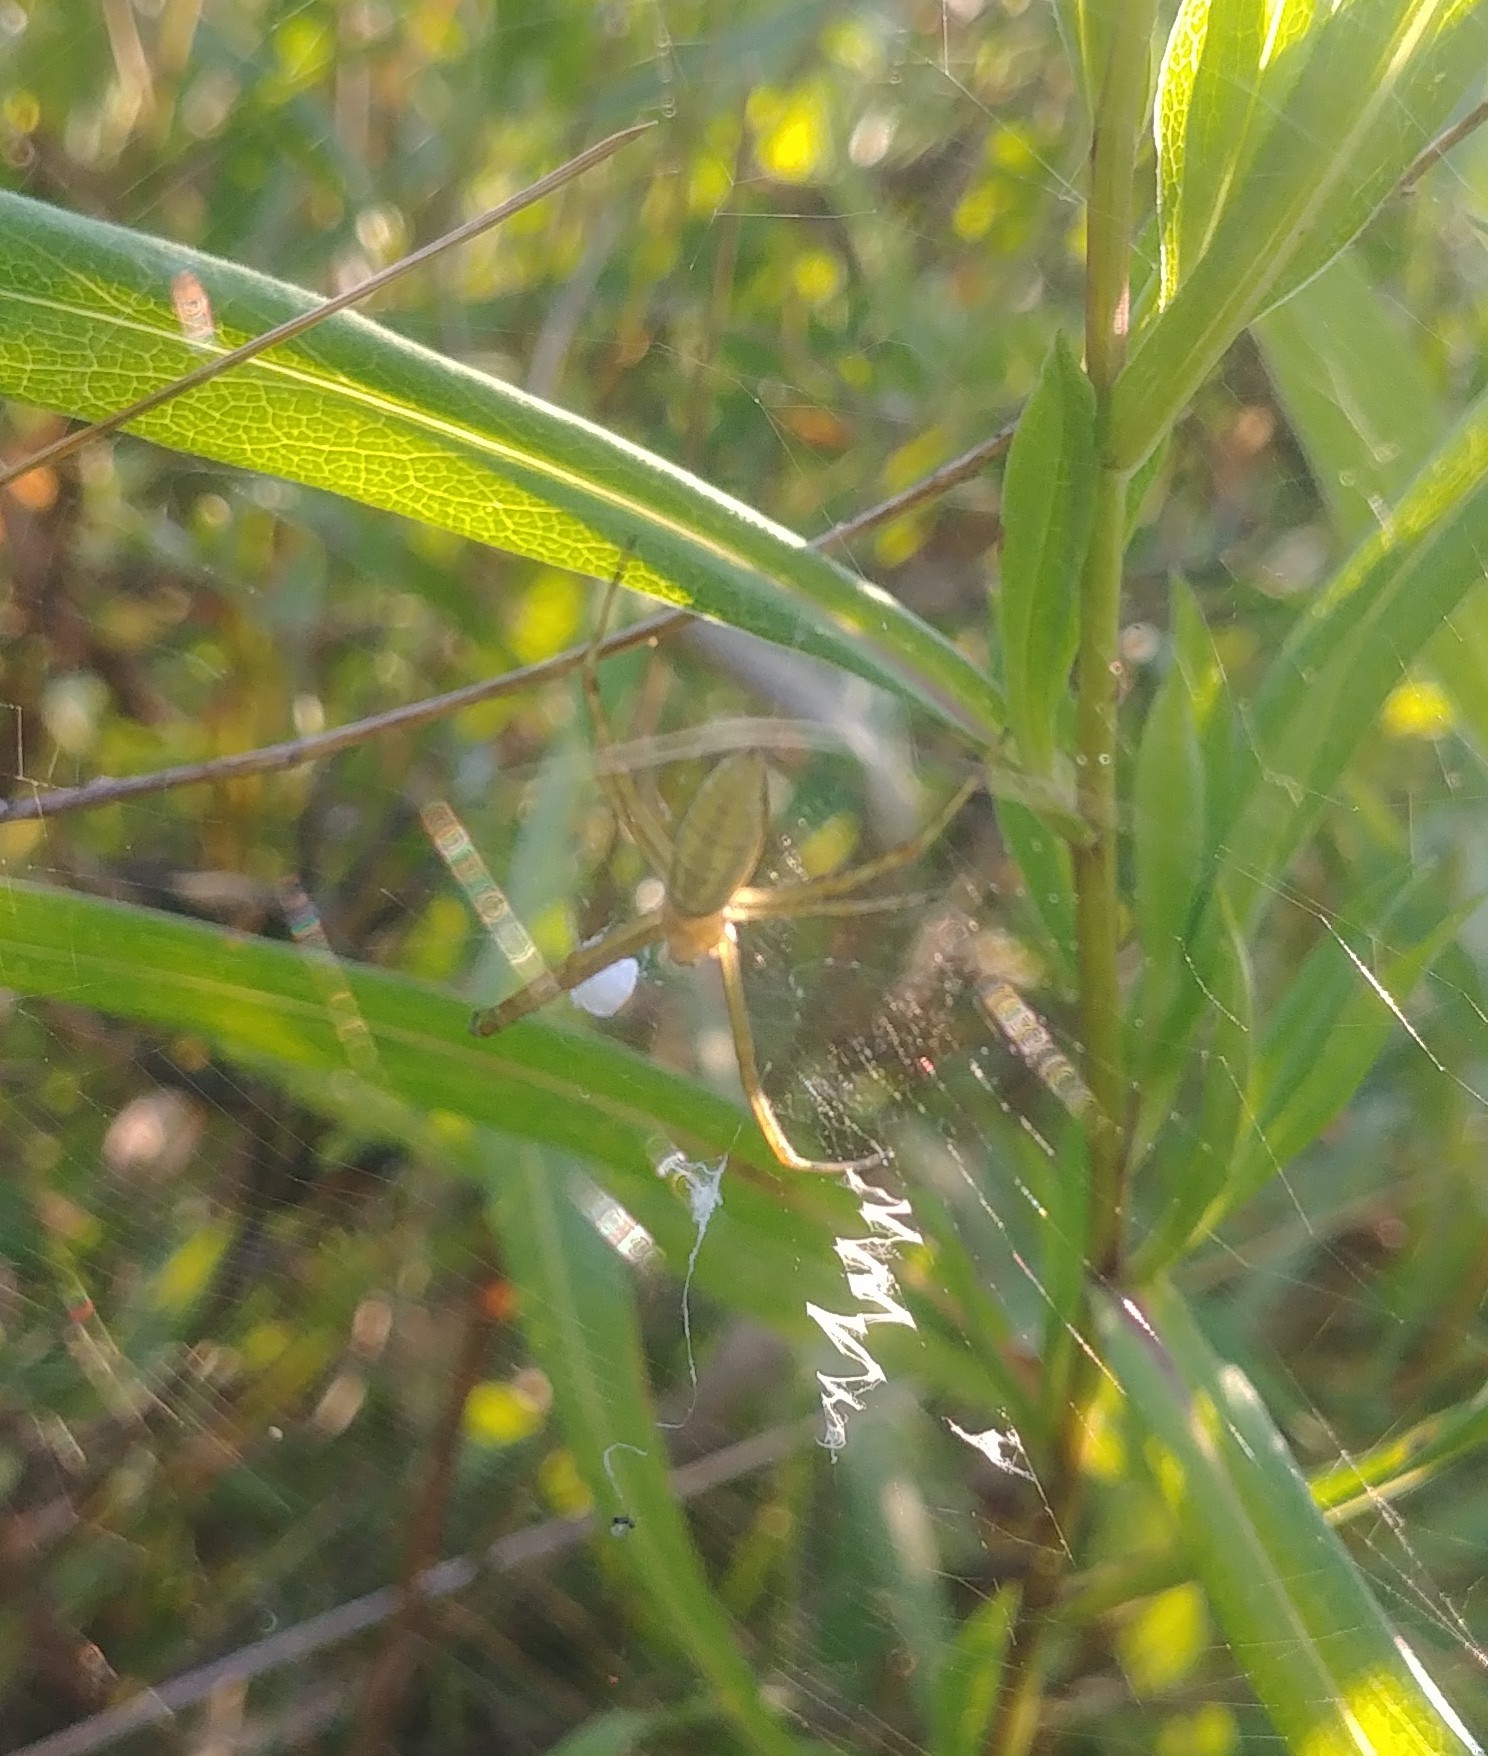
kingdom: Animalia
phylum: Arthropoda
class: Arachnida
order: Araneae
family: Araneidae
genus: Argiope
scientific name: Argiope trifasciata
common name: Banded garden spider
